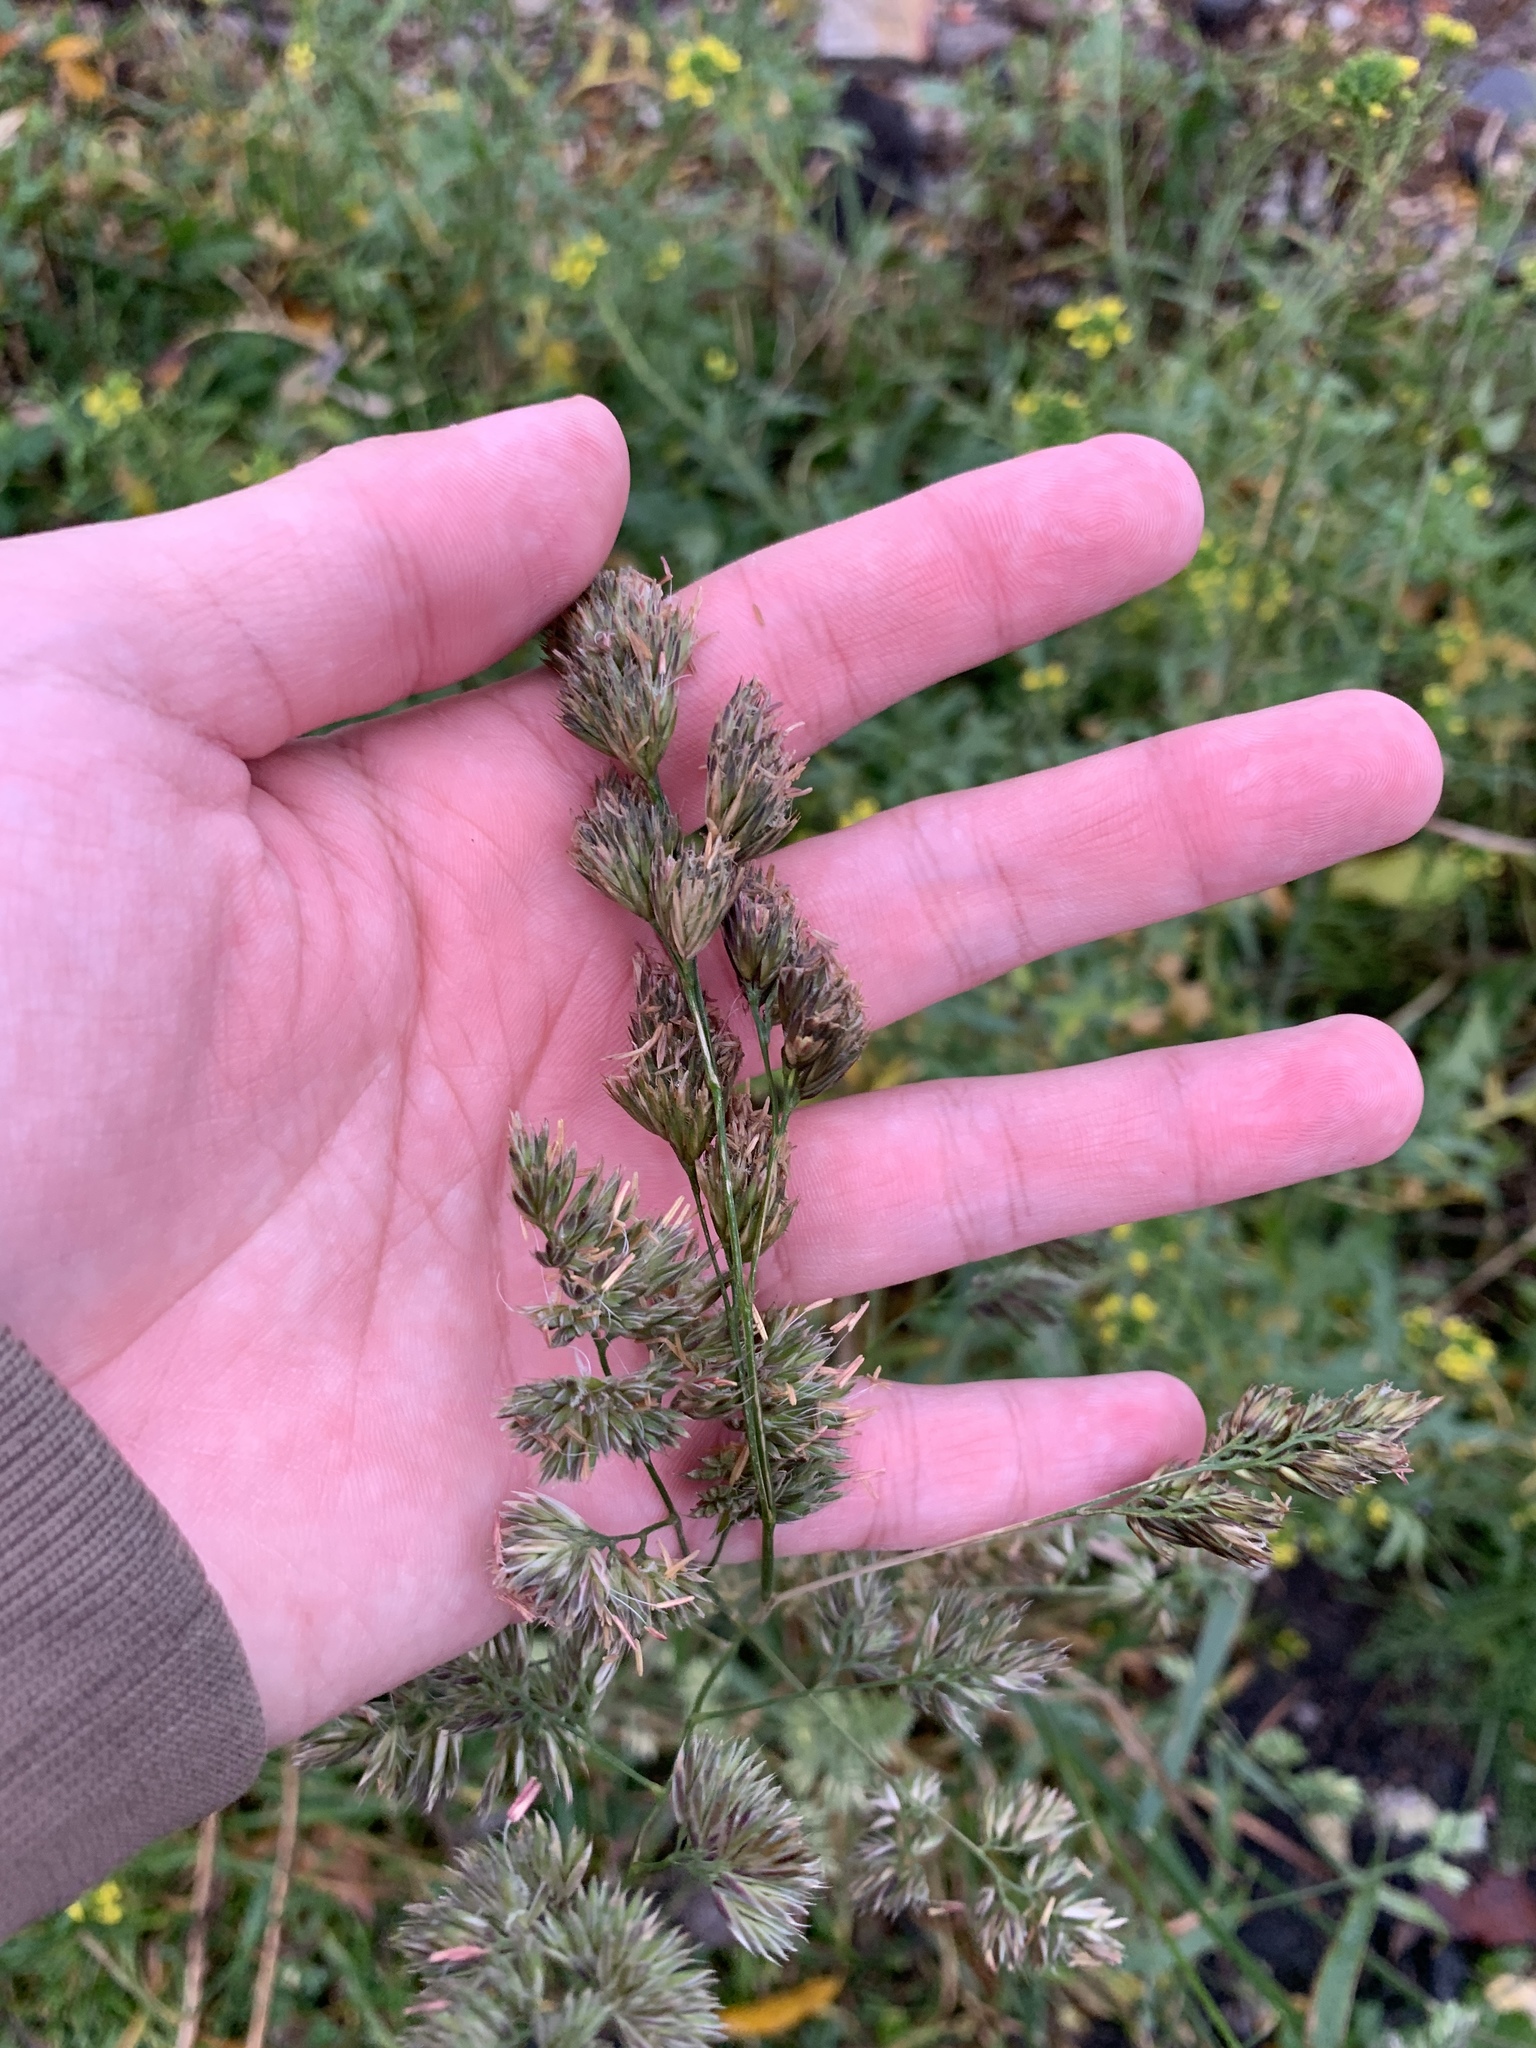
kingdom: Plantae
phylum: Tracheophyta
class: Liliopsida
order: Poales
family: Poaceae
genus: Dactylis
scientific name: Dactylis glomerata
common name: Orchardgrass
